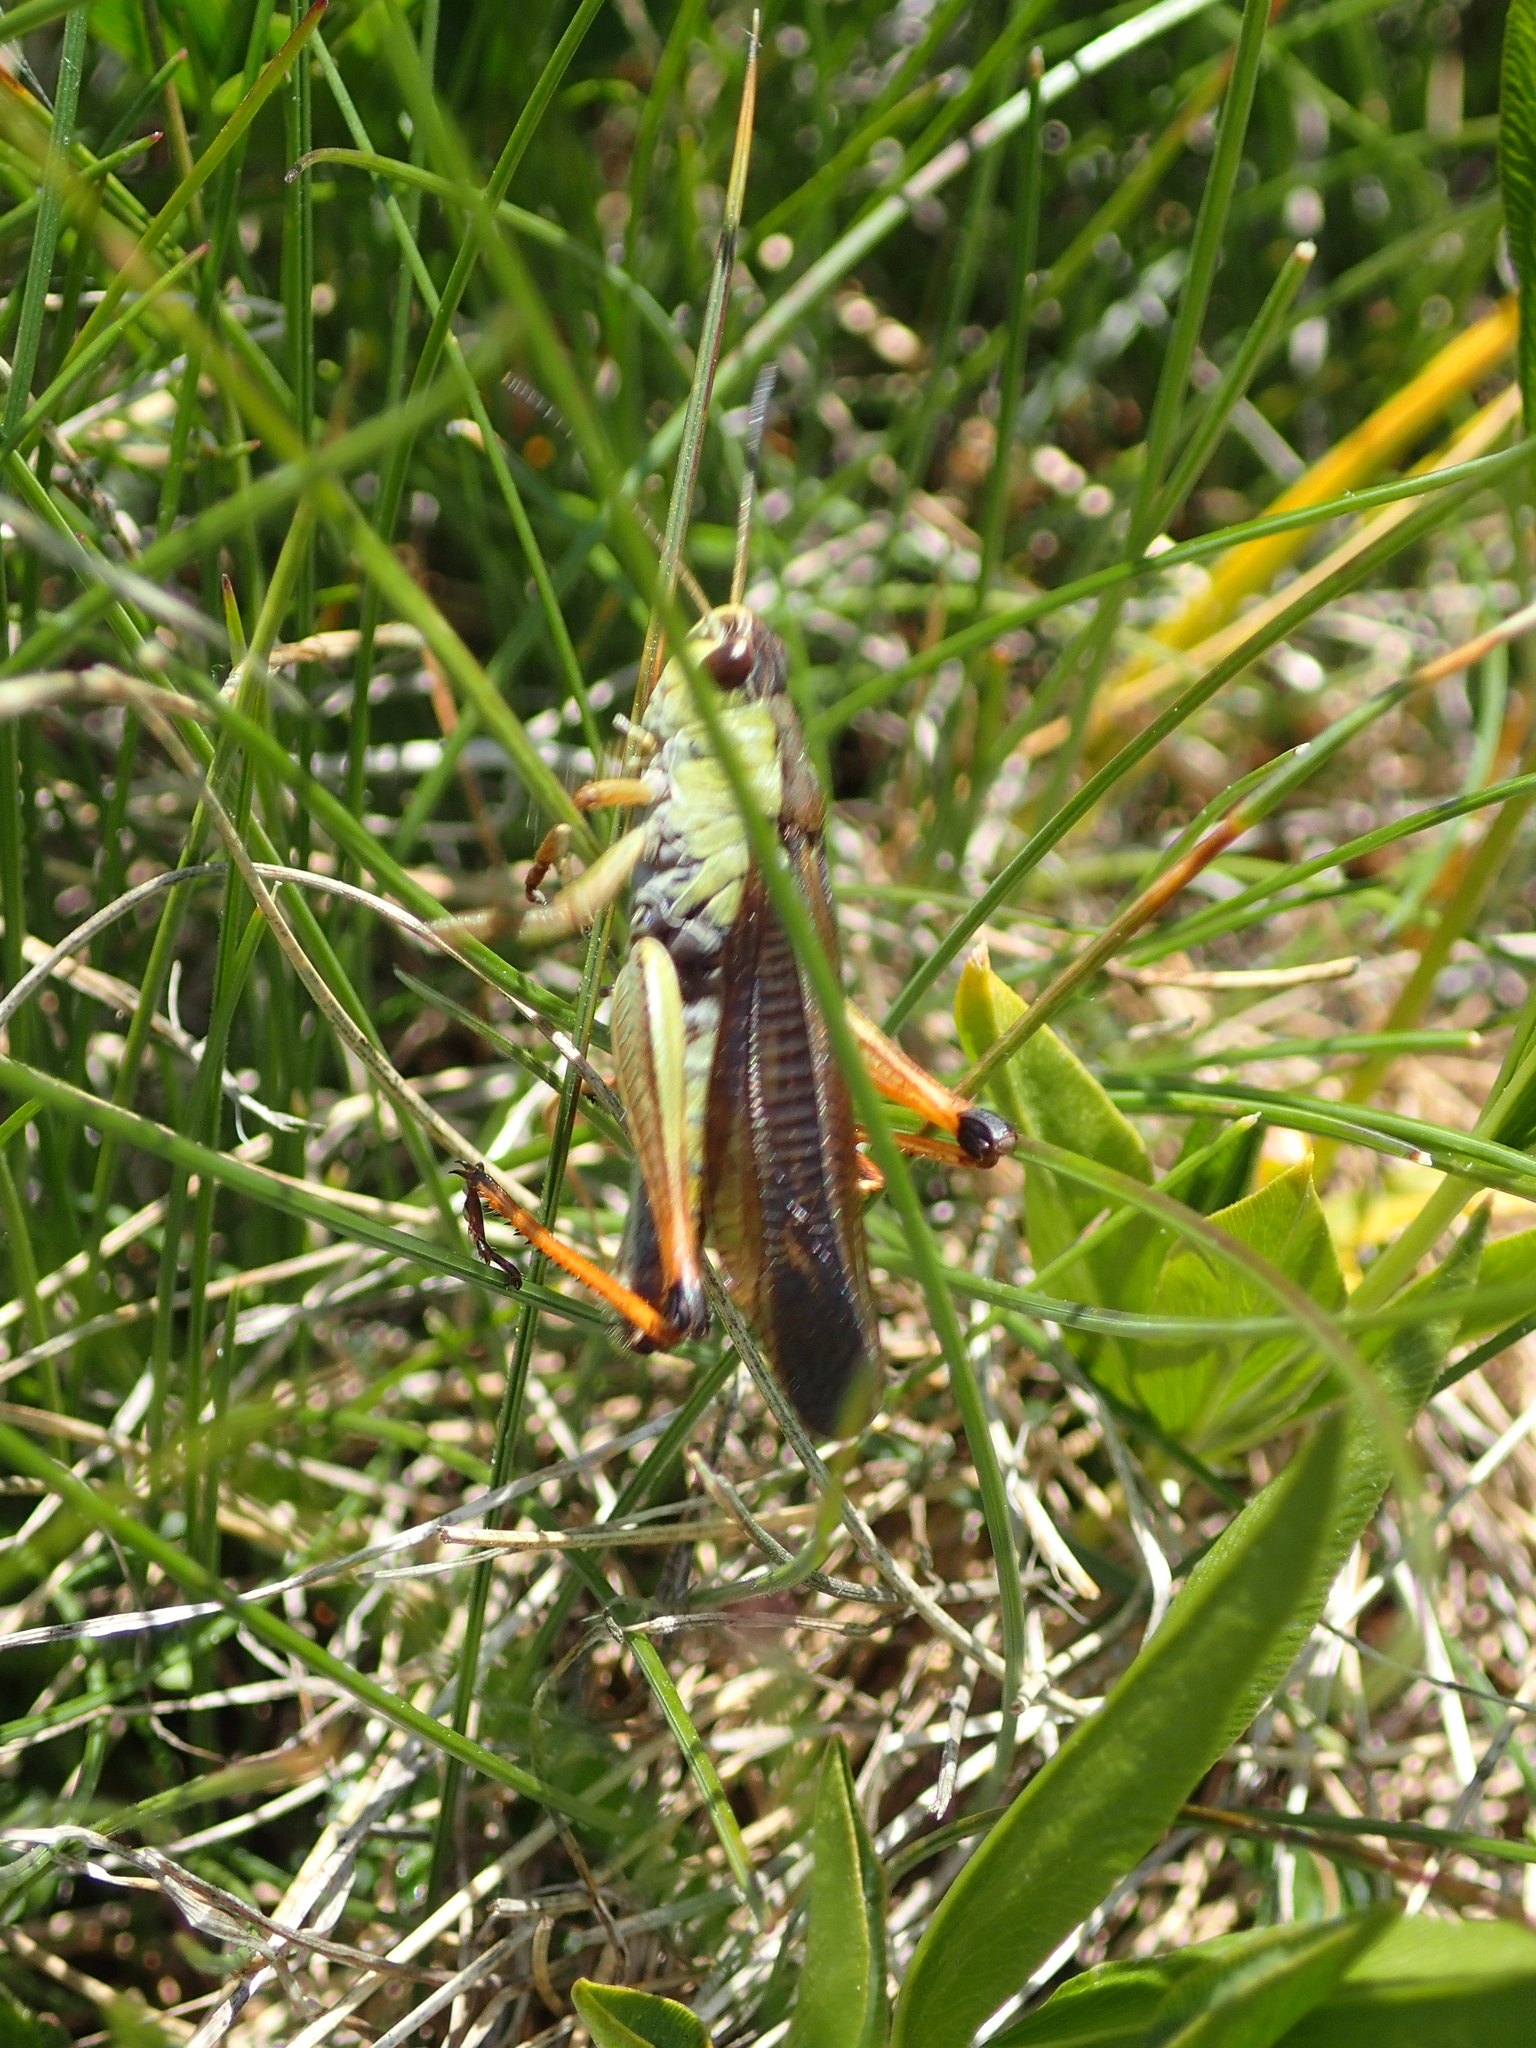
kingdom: Animalia
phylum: Arthropoda
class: Insecta
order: Orthoptera
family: Acrididae
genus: Stauroderus
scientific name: Stauroderus scalaris
